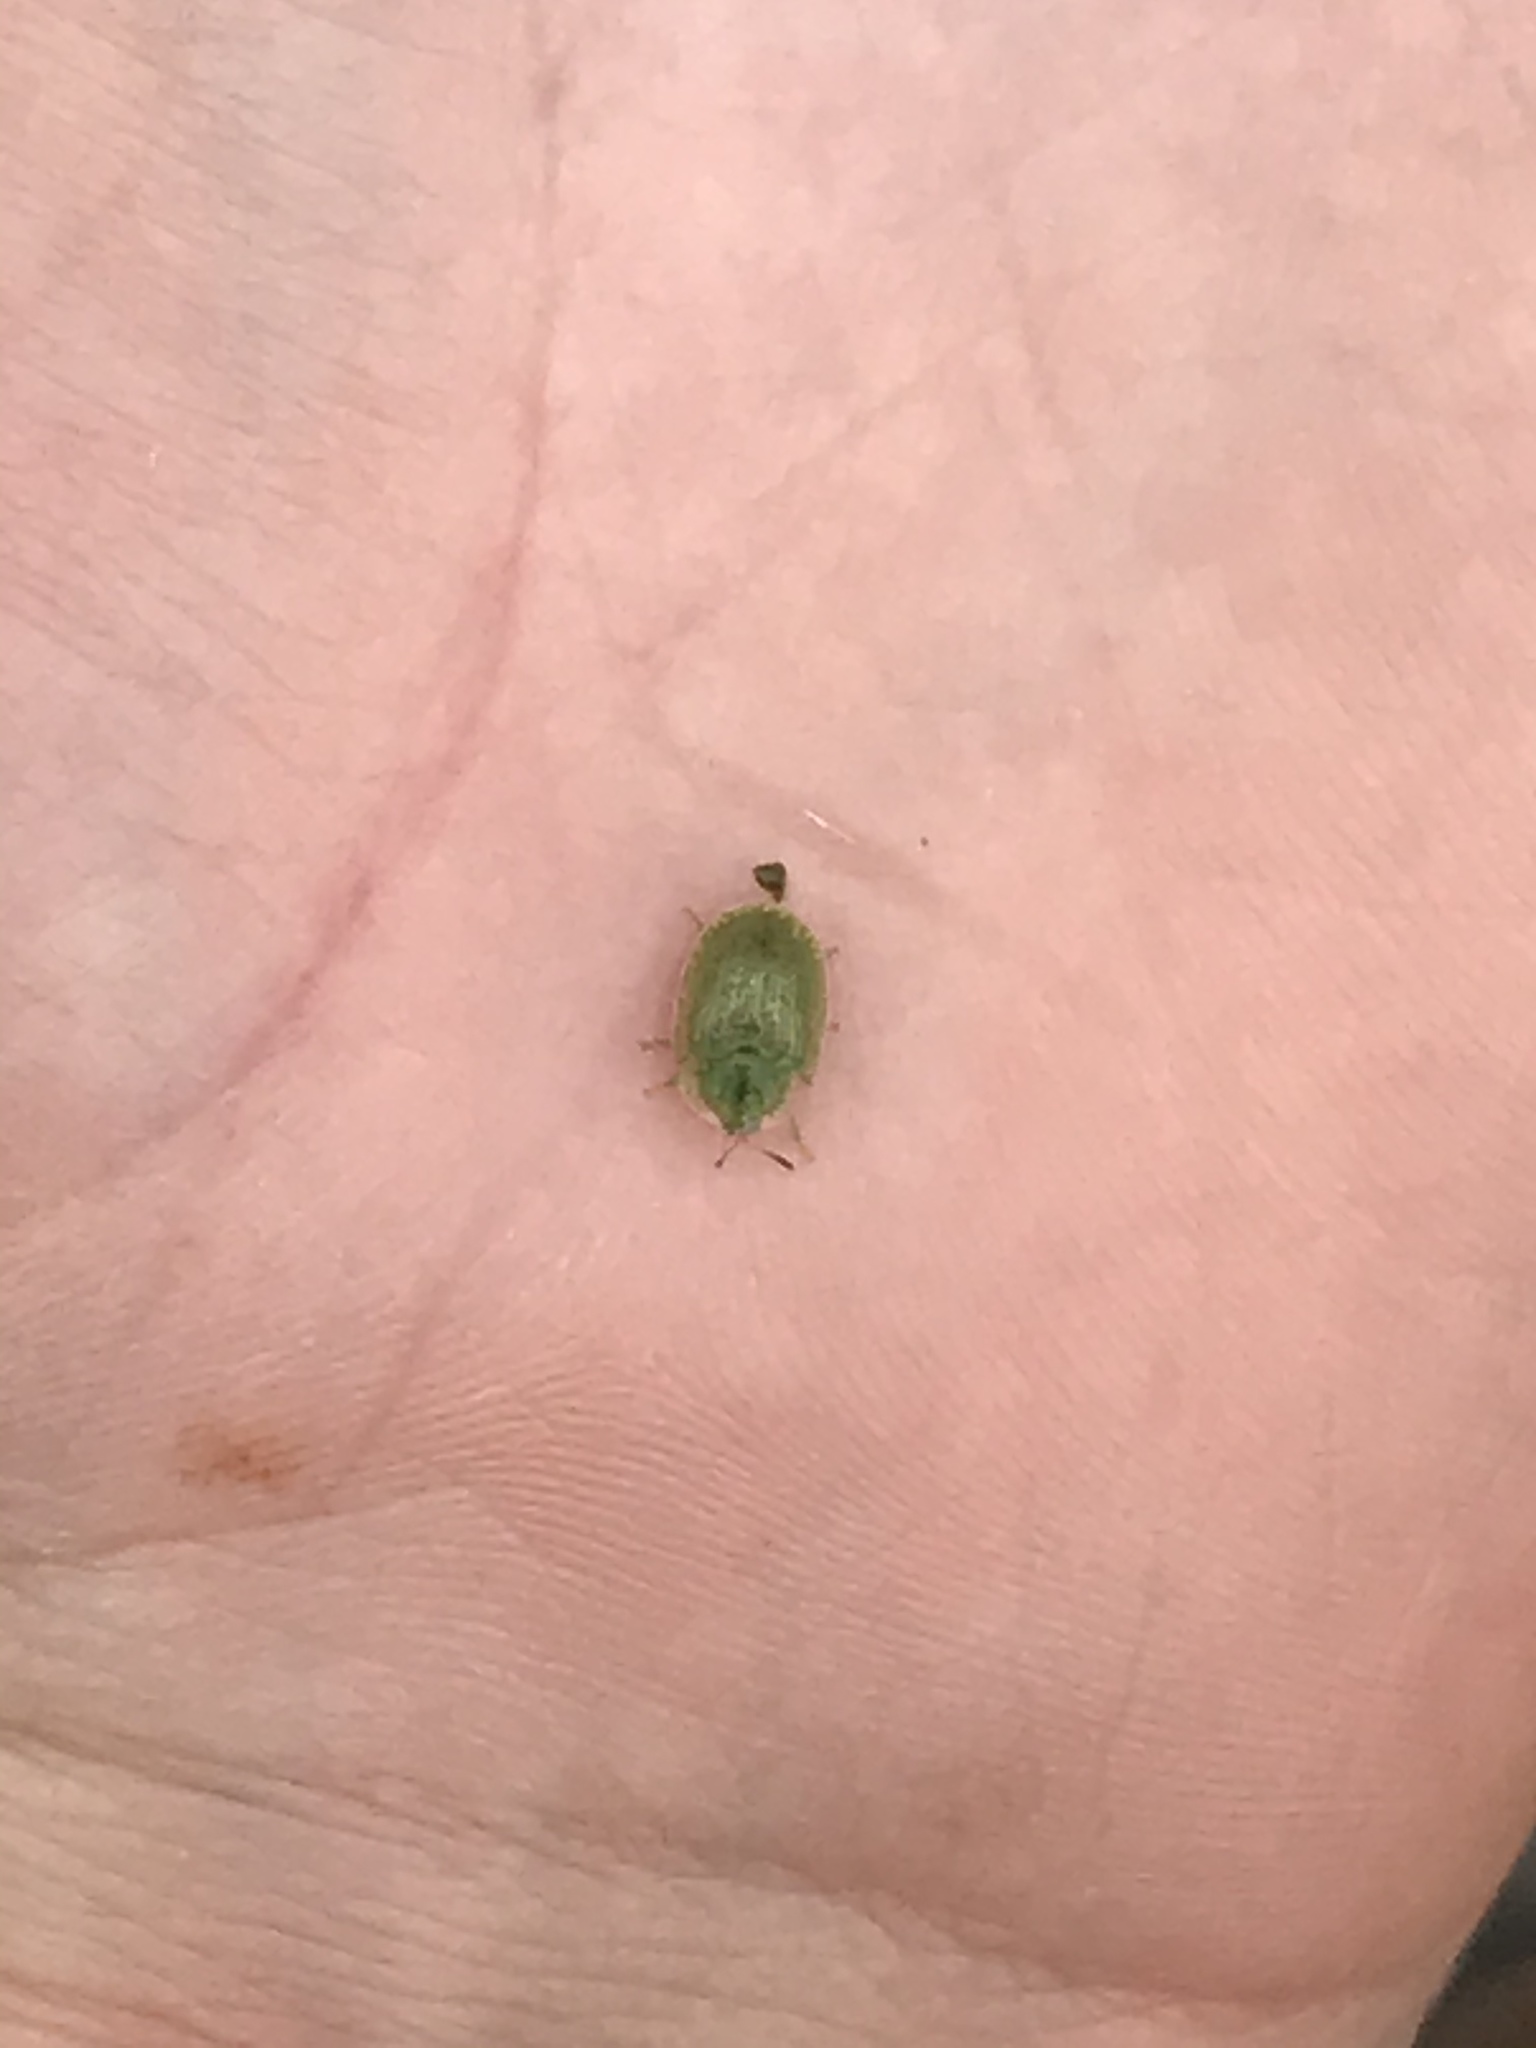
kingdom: Animalia
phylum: Arthropoda
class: Insecta
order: Coleoptera
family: Chrysomelidae
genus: Gratiana
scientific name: Gratiana pallidula
